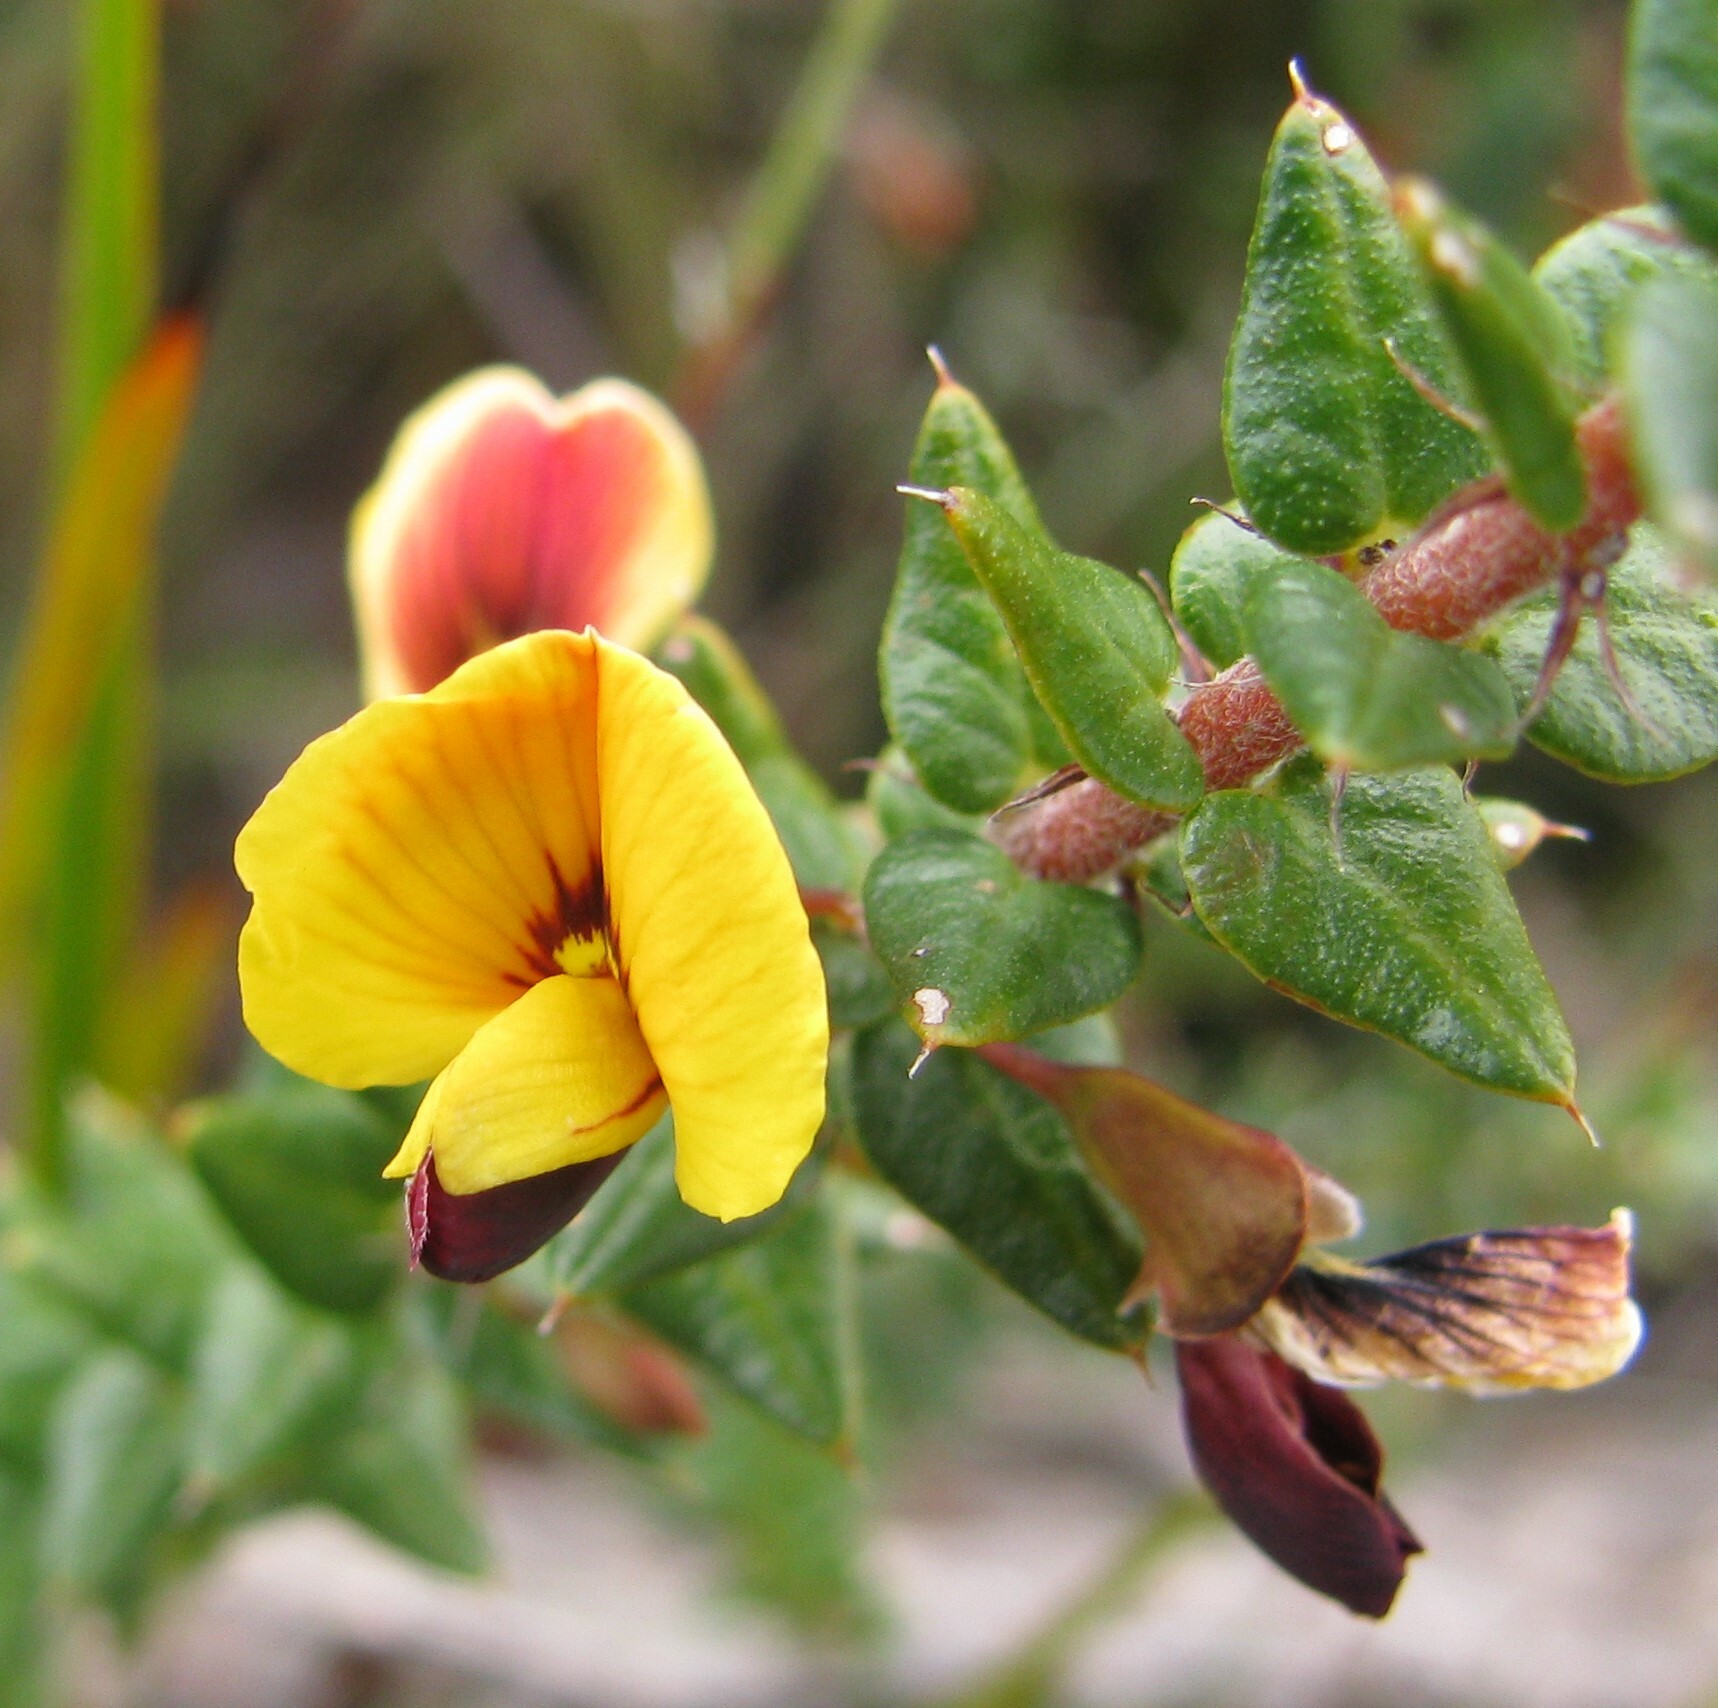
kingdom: Plantae
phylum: Tracheophyta
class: Magnoliopsida
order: Fabales
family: Fabaceae
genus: Bossiaea
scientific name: Bossiaea cinerea
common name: Showy bossiaea
